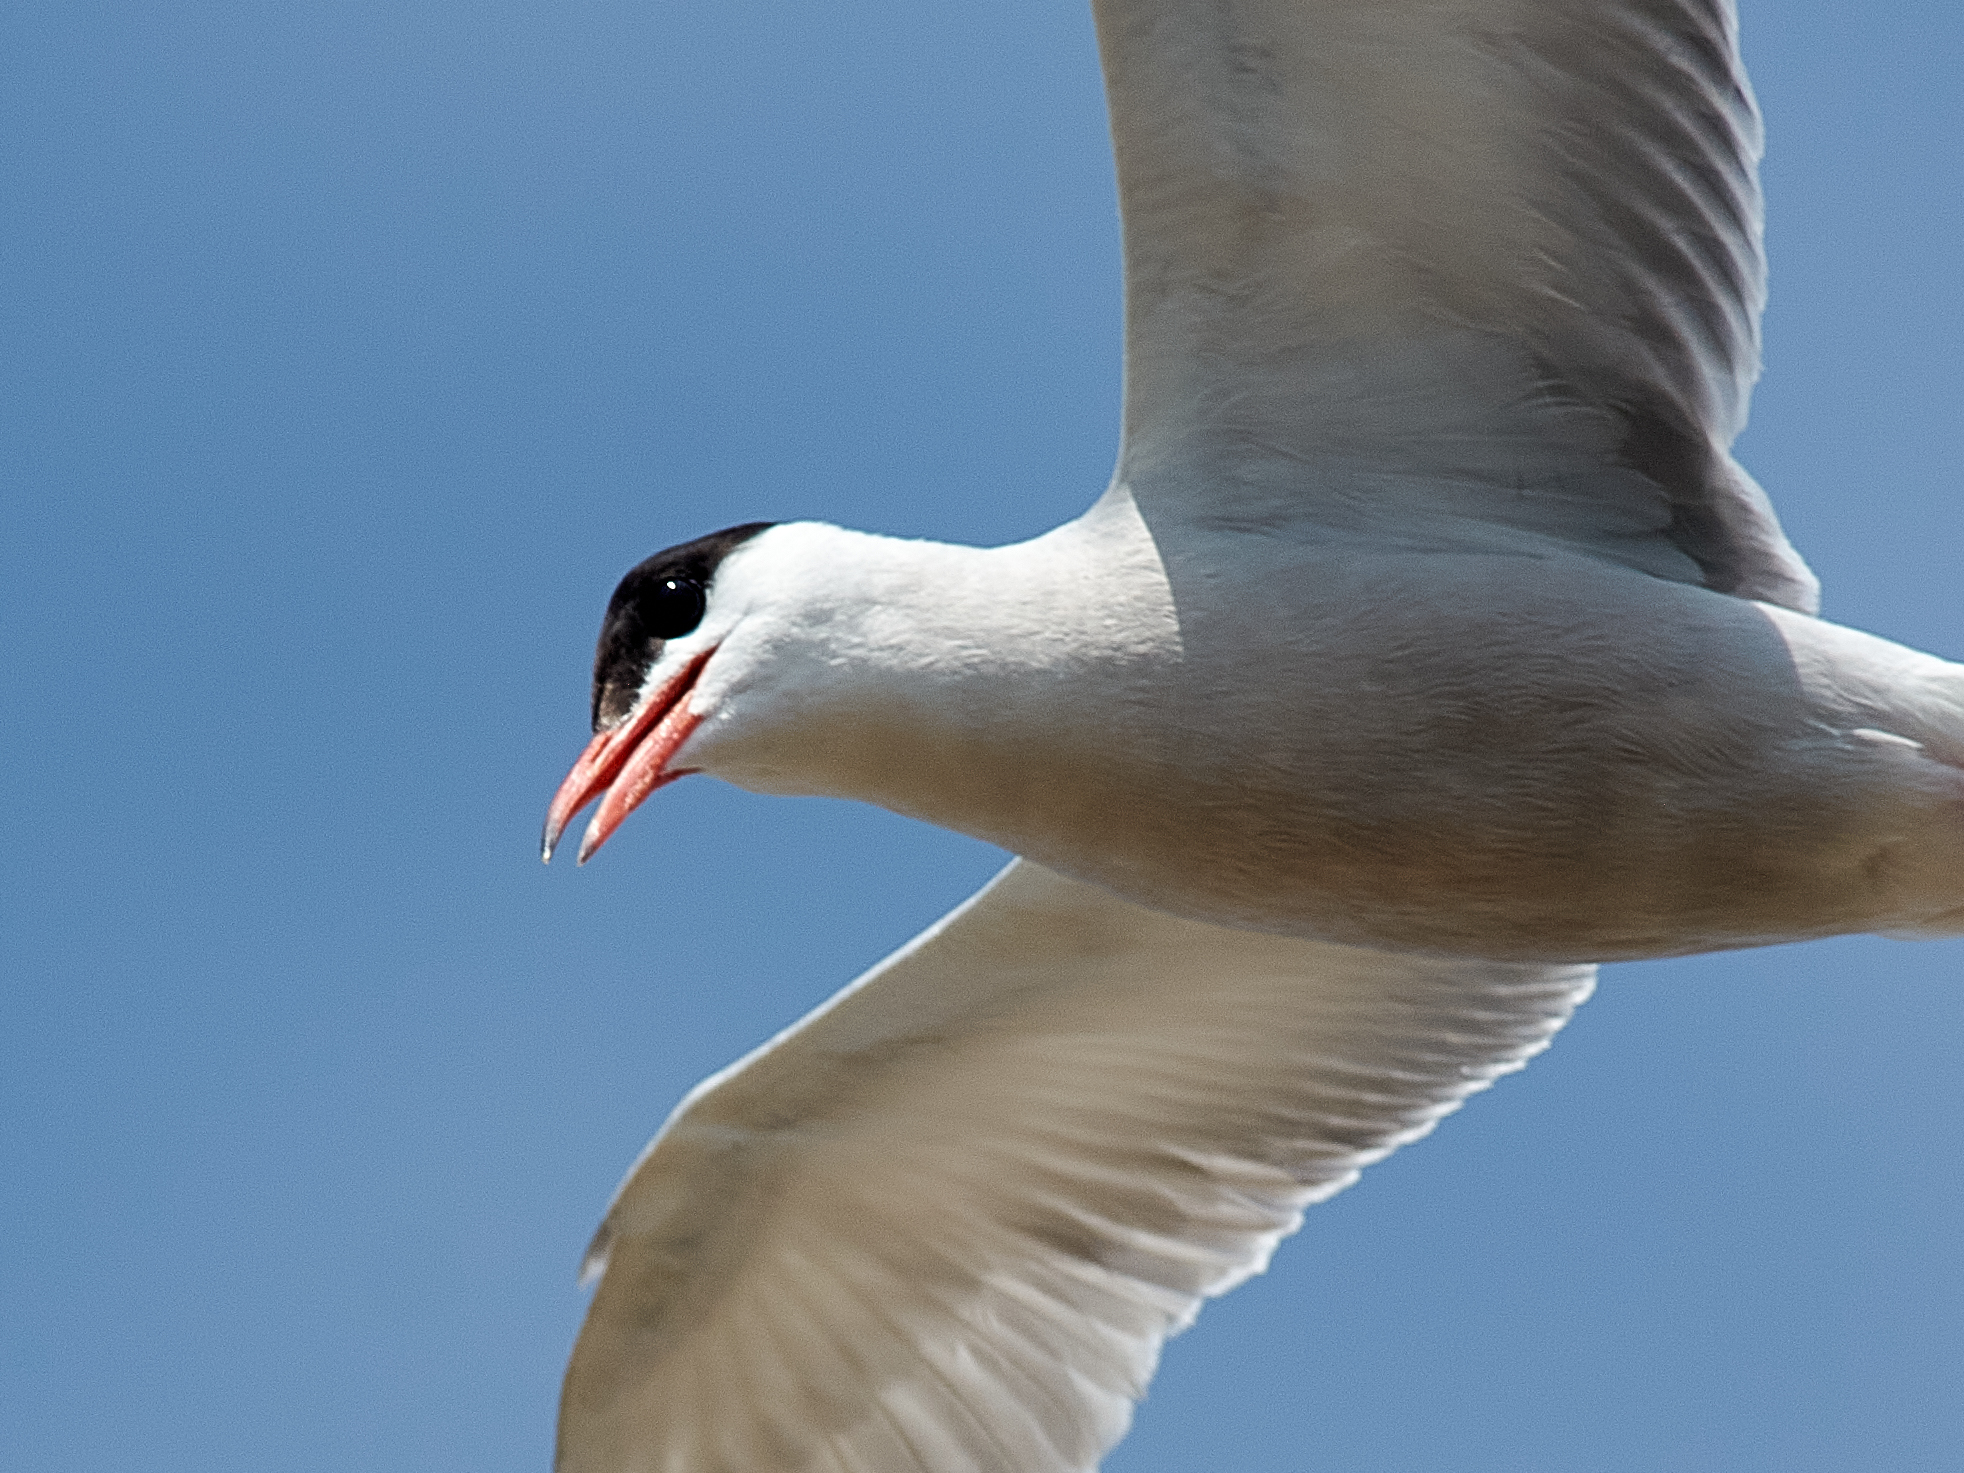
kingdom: Animalia
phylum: Chordata
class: Aves
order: Charadriiformes
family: Laridae
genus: Sterna
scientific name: Sterna hirundo
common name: Common tern
